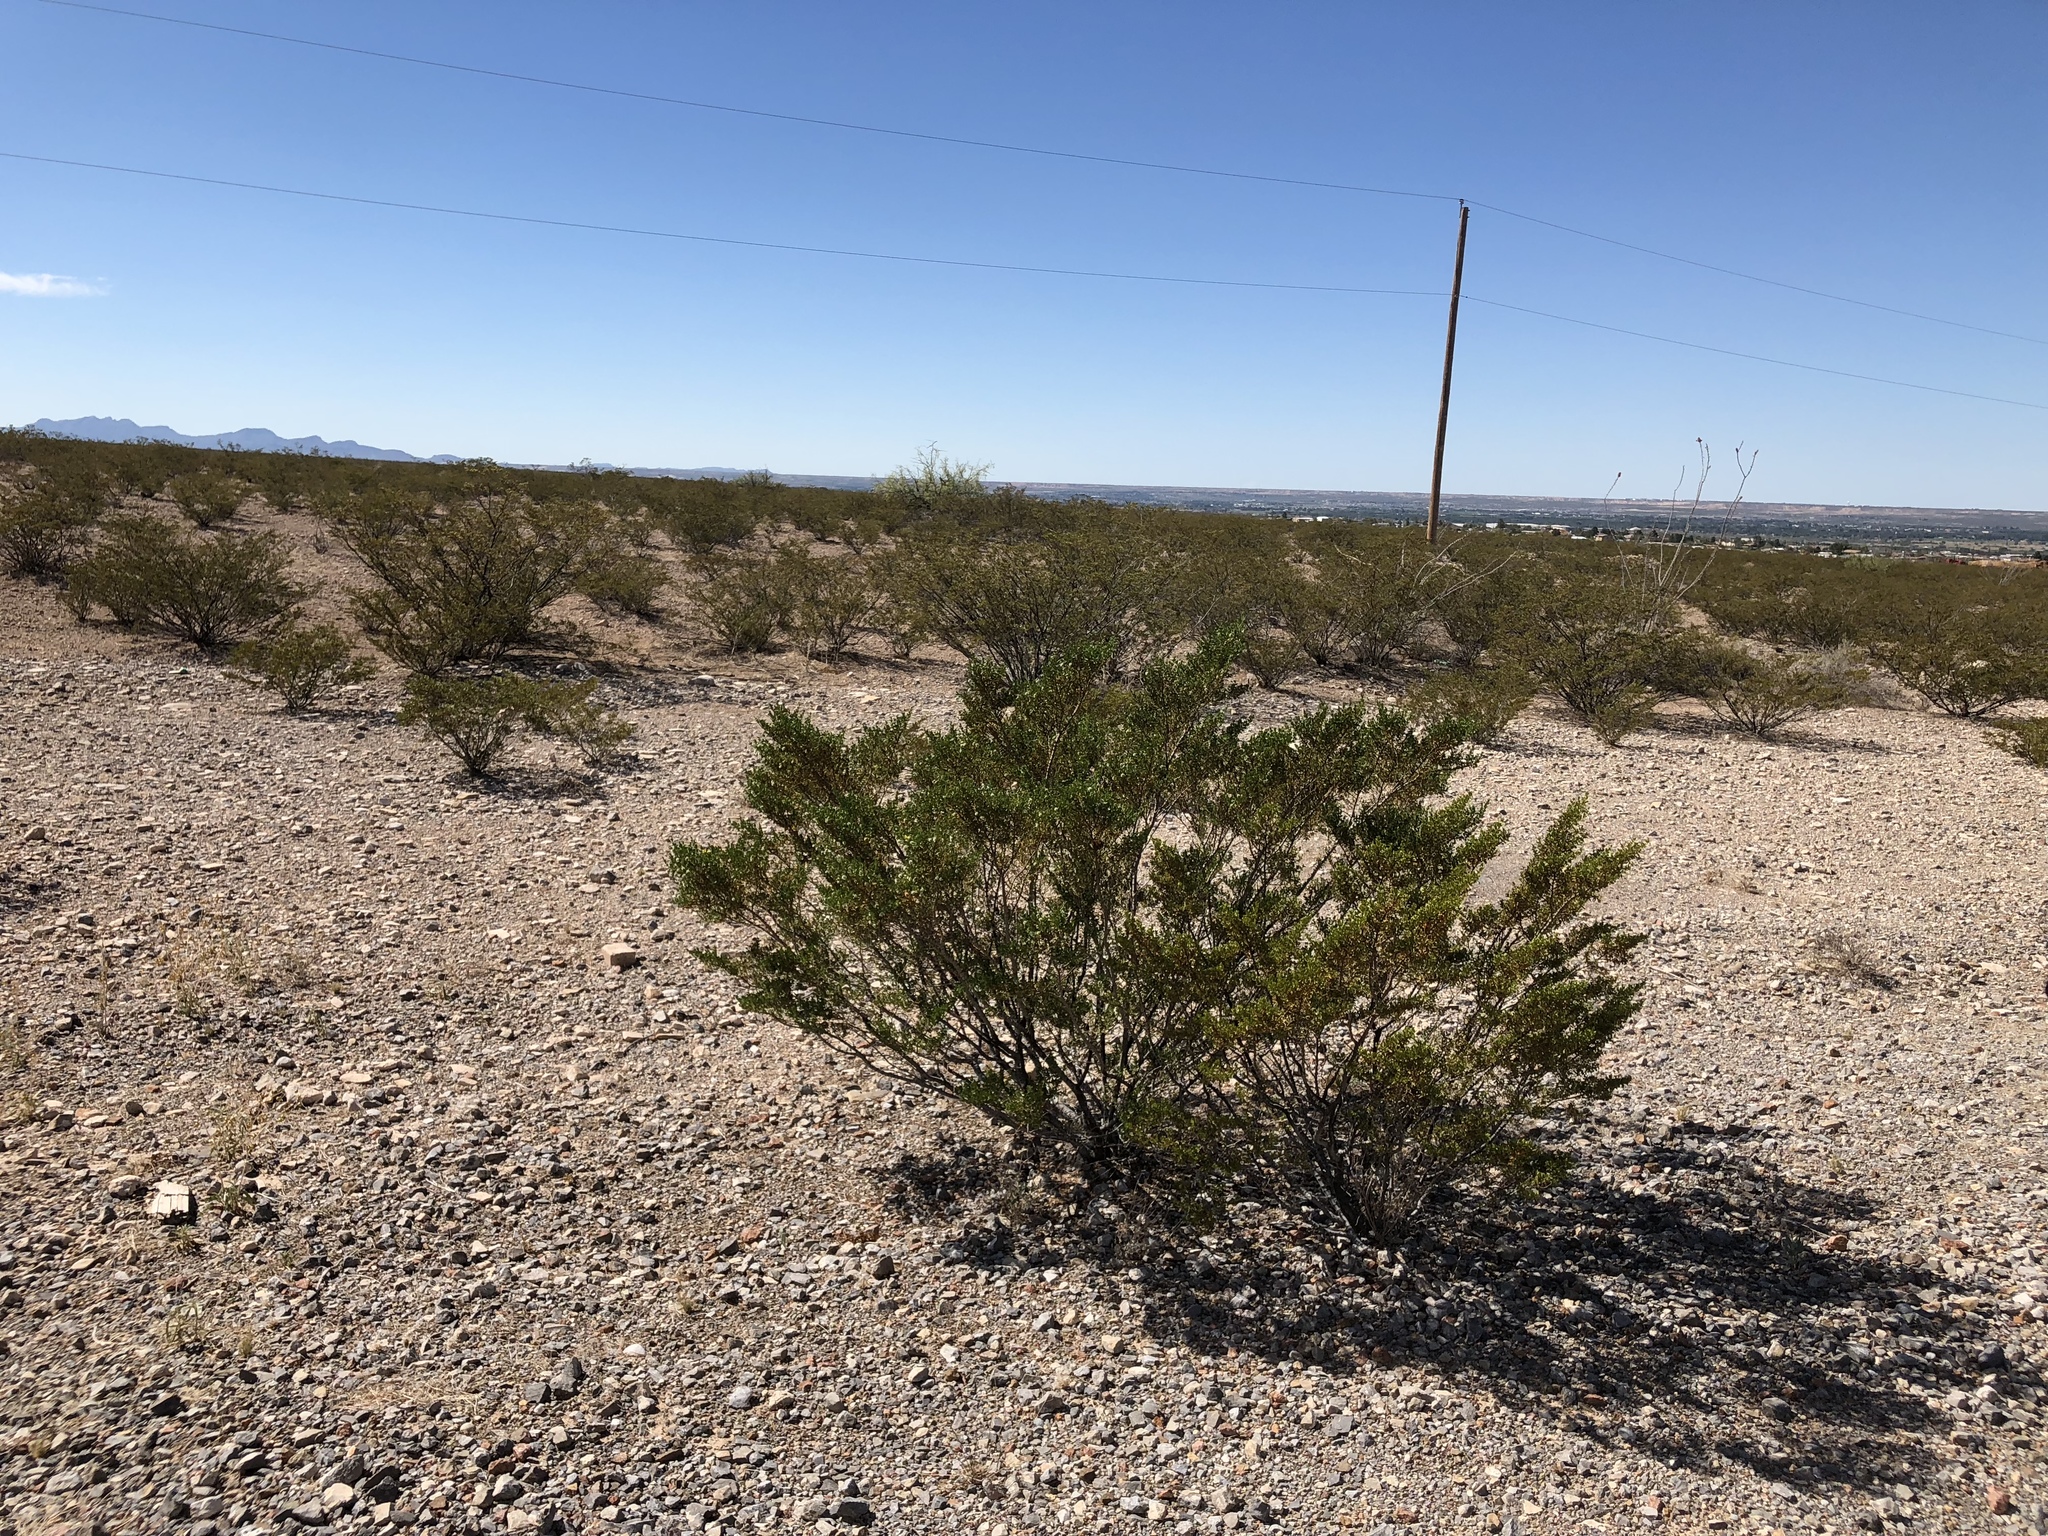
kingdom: Plantae
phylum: Tracheophyta
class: Magnoliopsida
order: Zygophyllales
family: Zygophyllaceae
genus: Larrea
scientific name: Larrea tridentata
